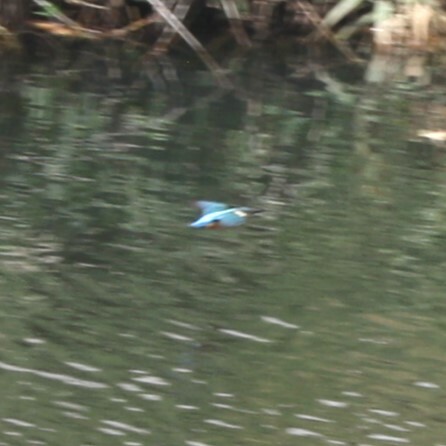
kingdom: Animalia
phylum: Chordata
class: Aves
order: Coraciiformes
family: Alcedinidae
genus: Alcedo
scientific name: Alcedo atthis
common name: Common kingfisher
